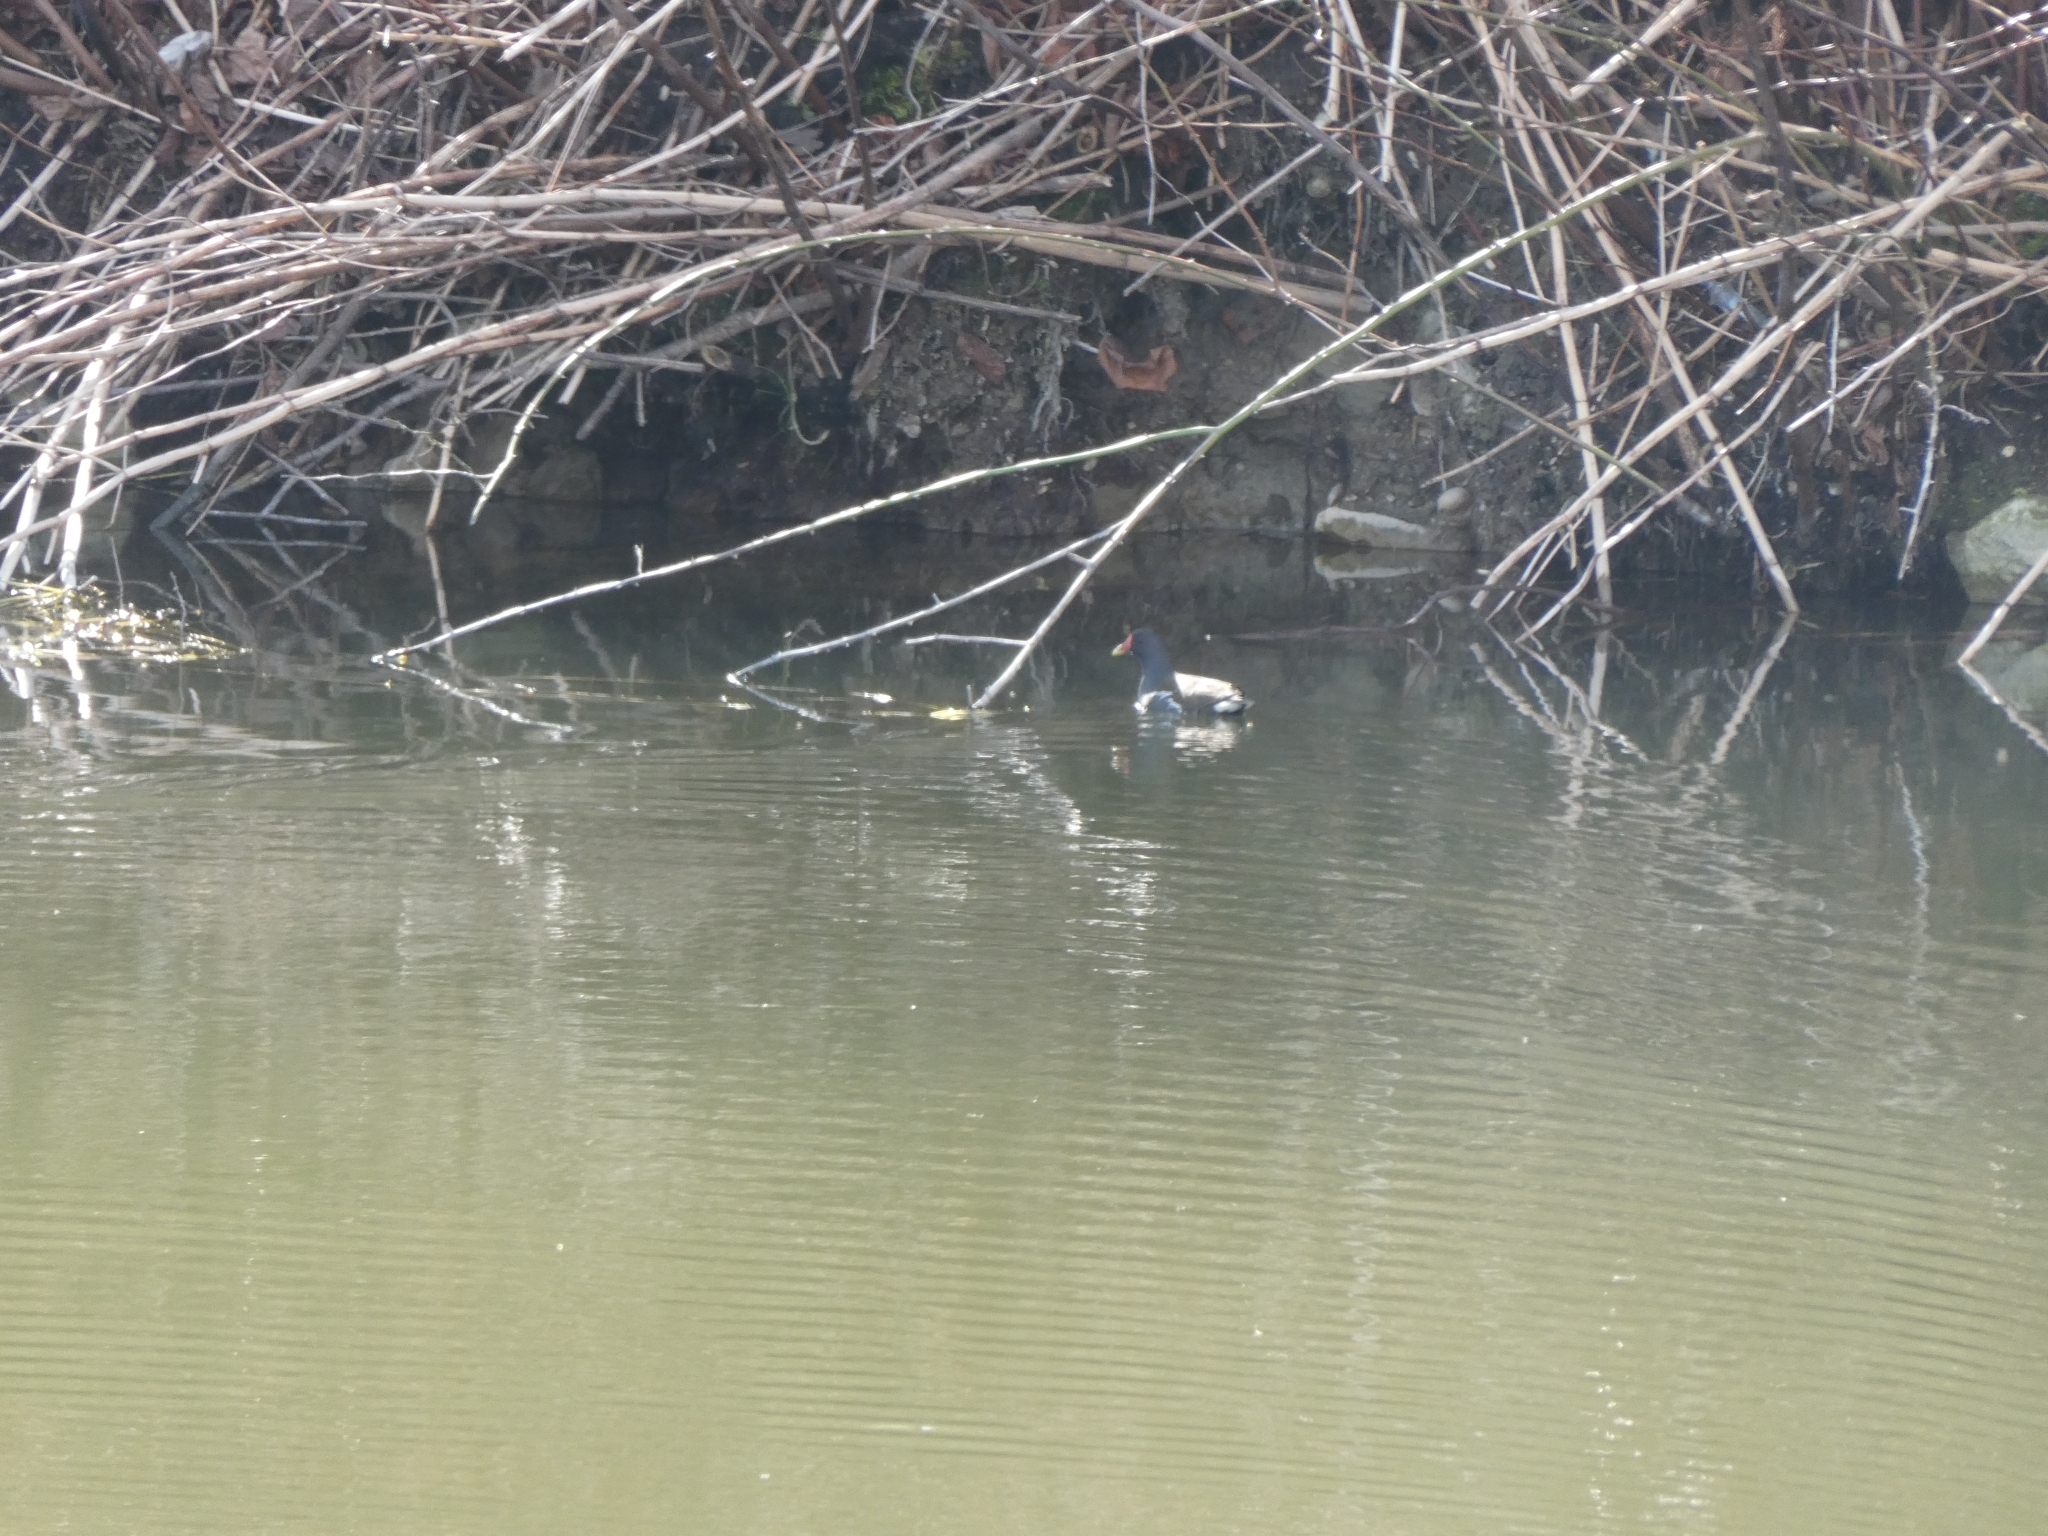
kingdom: Animalia
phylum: Chordata
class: Aves
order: Gruiformes
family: Rallidae
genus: Gallinula
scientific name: Gallinula chloropus
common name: Common moorhen
